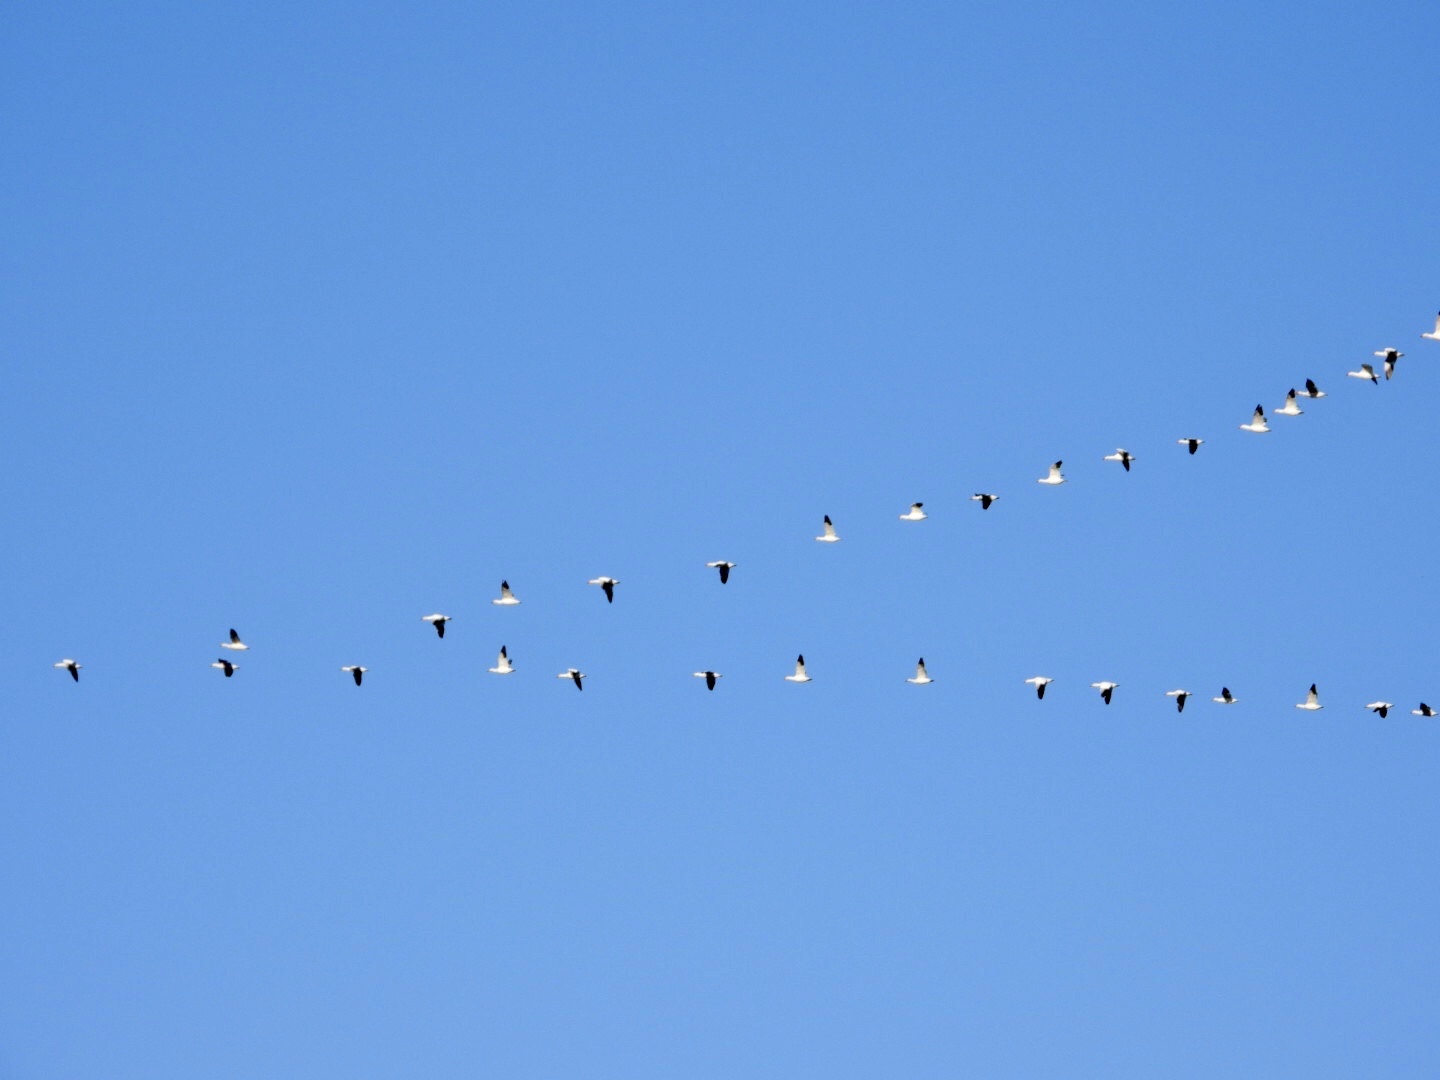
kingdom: Animalia
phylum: Chordata
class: Aves
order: Anseriformes
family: Anatidae
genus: Anser
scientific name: Anser caerulescens
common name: Snow goose
